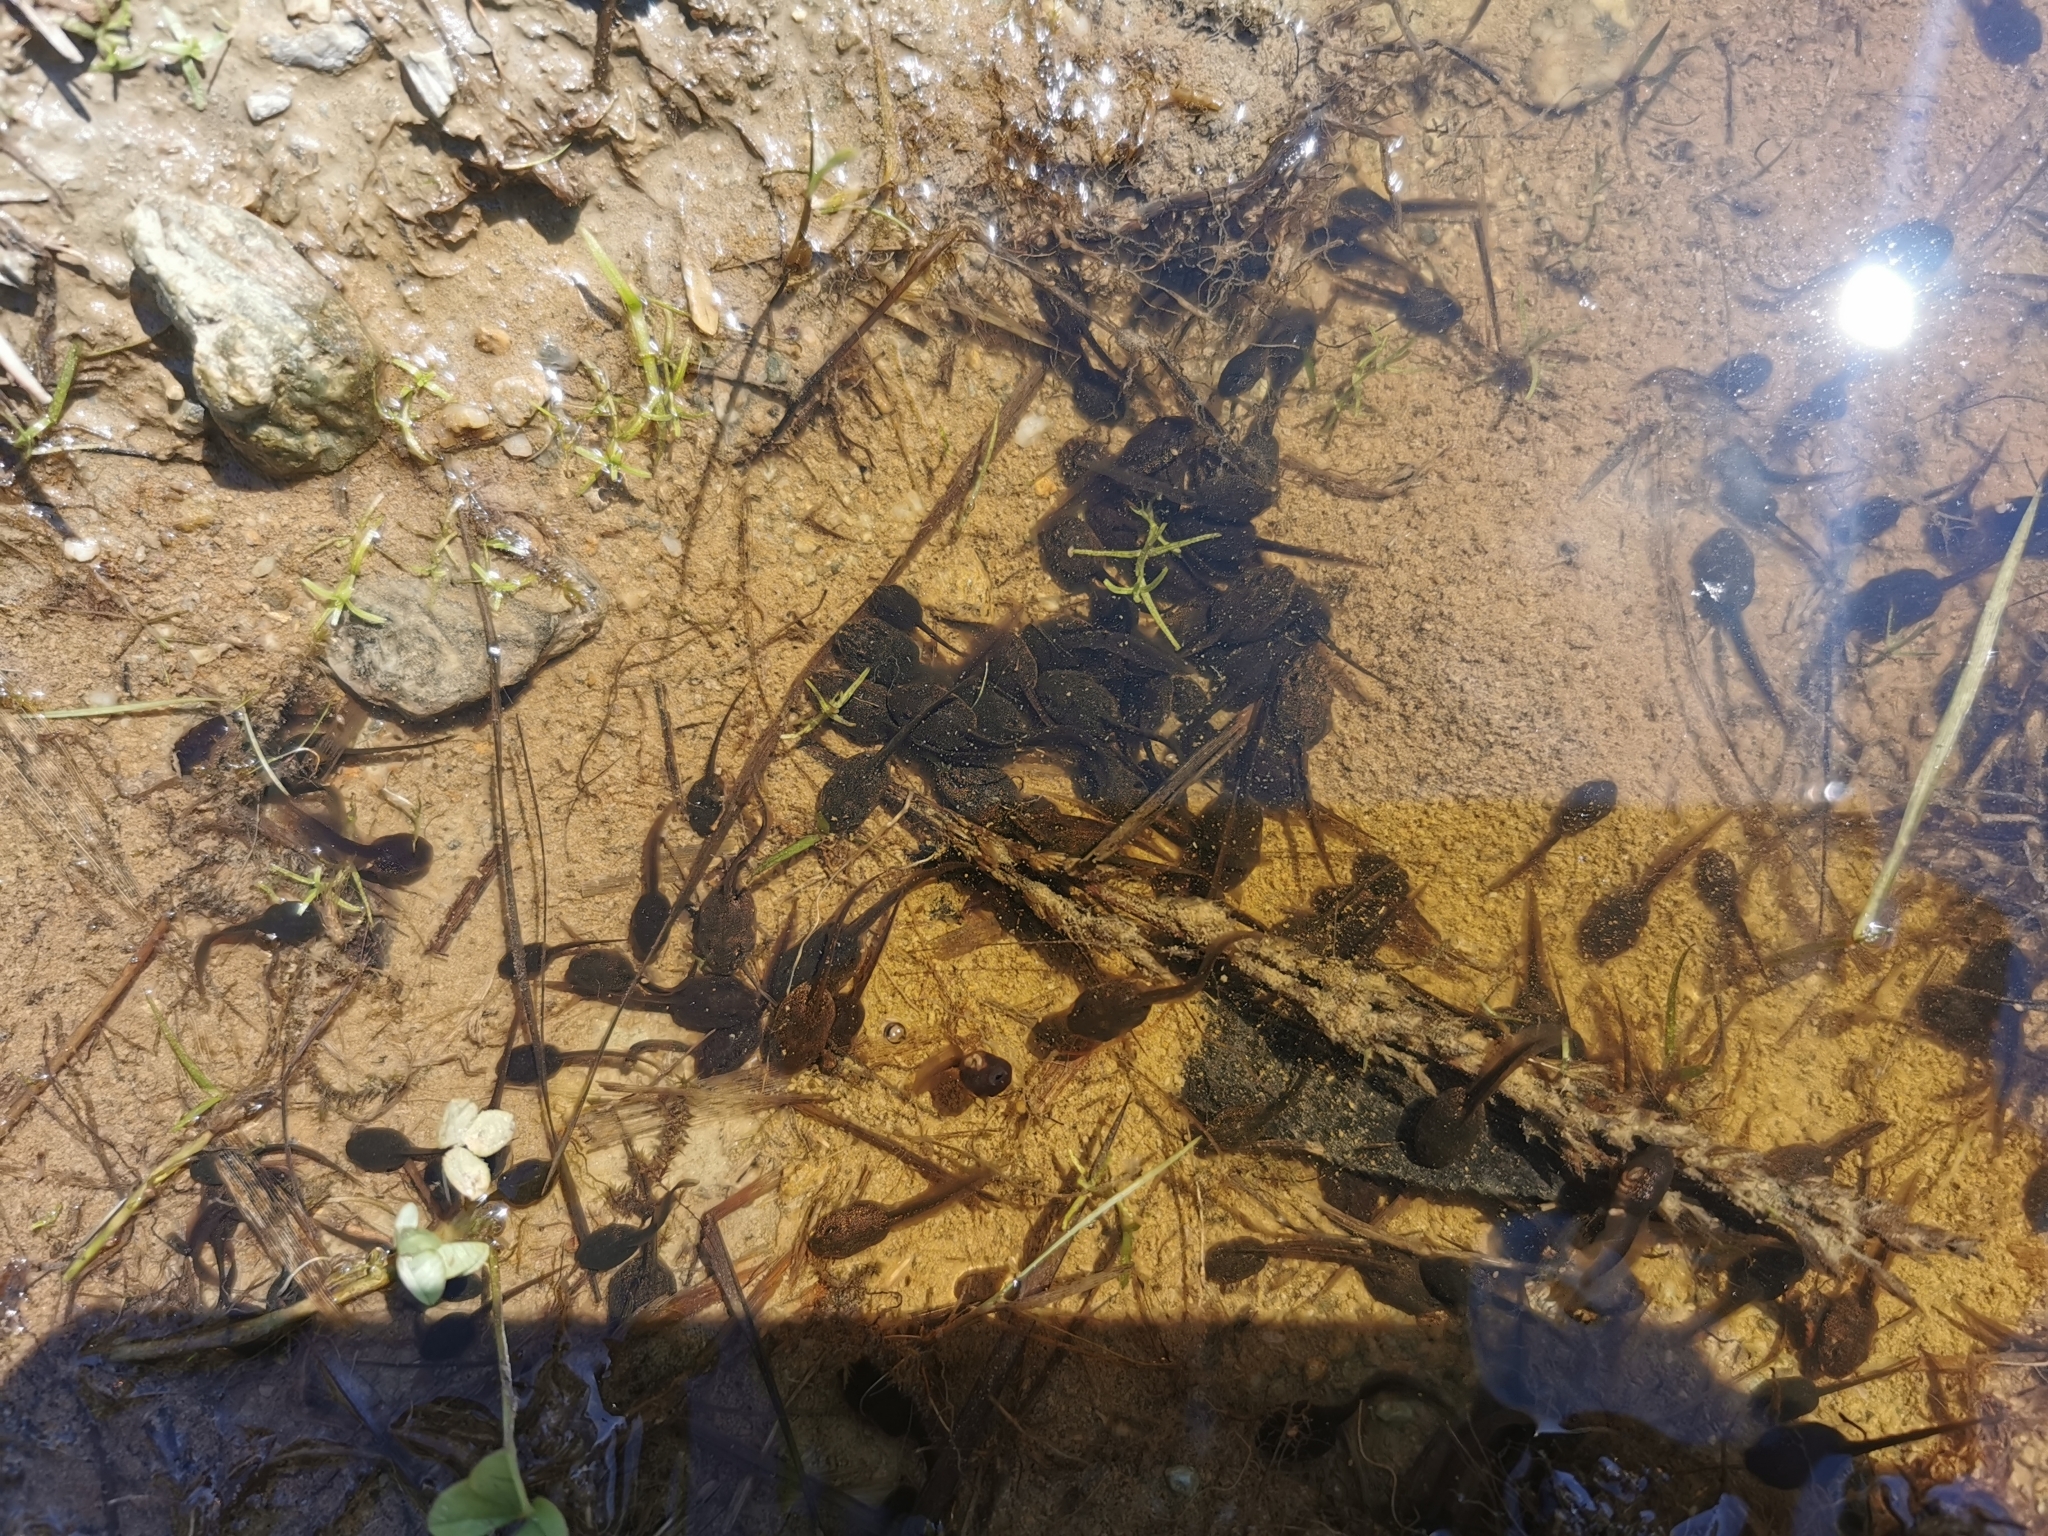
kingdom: Animalia
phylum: Chordata
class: Amphibia
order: Anura
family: Bufonidae
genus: Bufo
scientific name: Bufo gargarizans
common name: Asiatic toad
